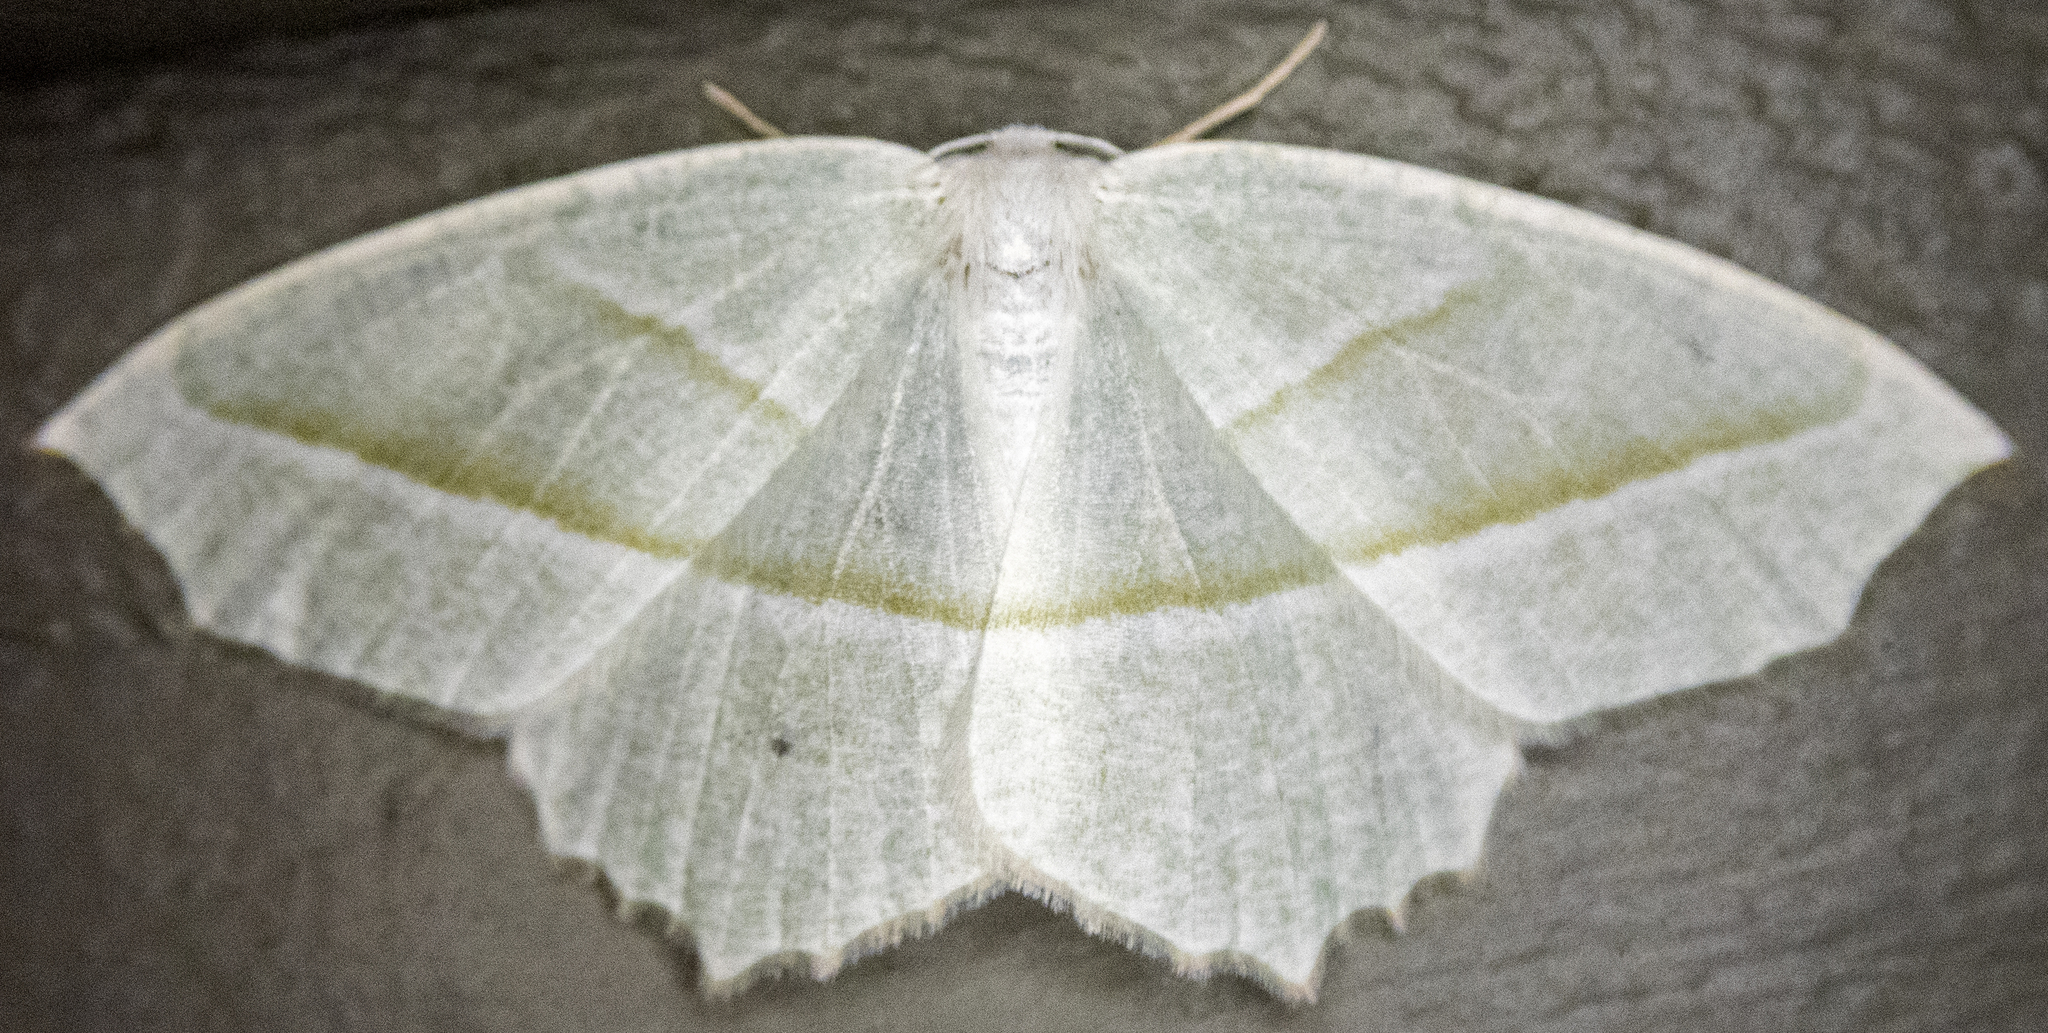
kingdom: Animalia
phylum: Arthropoda
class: Insecta
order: Lepidoptera
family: Geometridae
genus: Campaea
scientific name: Campaea perlata
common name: Fringed looper
